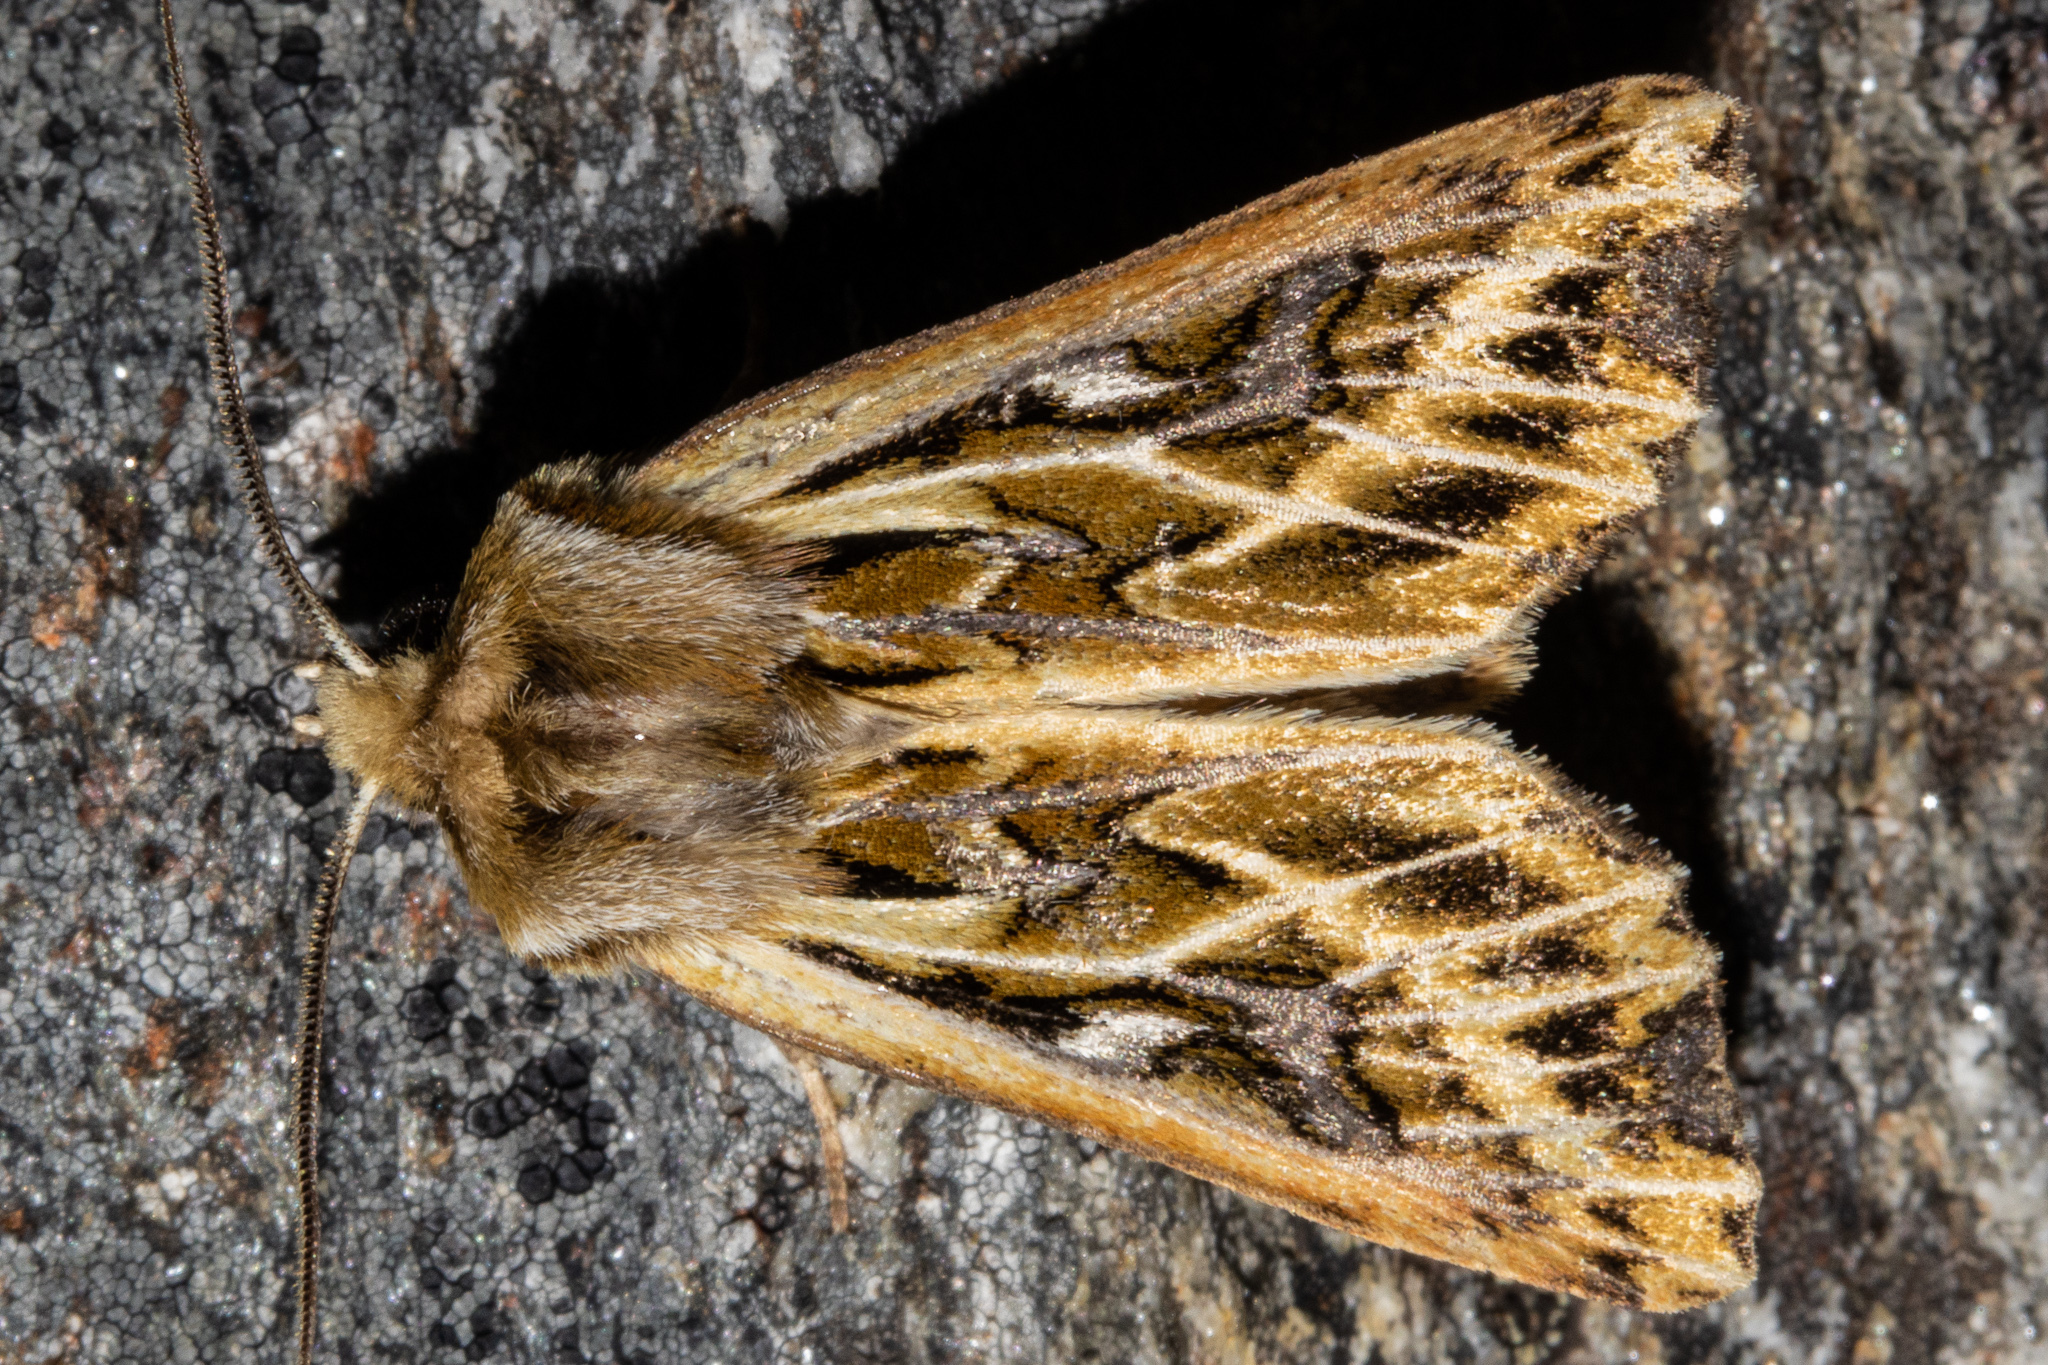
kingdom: Animalia
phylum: Arthropoda
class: Insecta
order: Lepidoptera
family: Noctuidae
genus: Ichneutica
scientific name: Ichneutica
